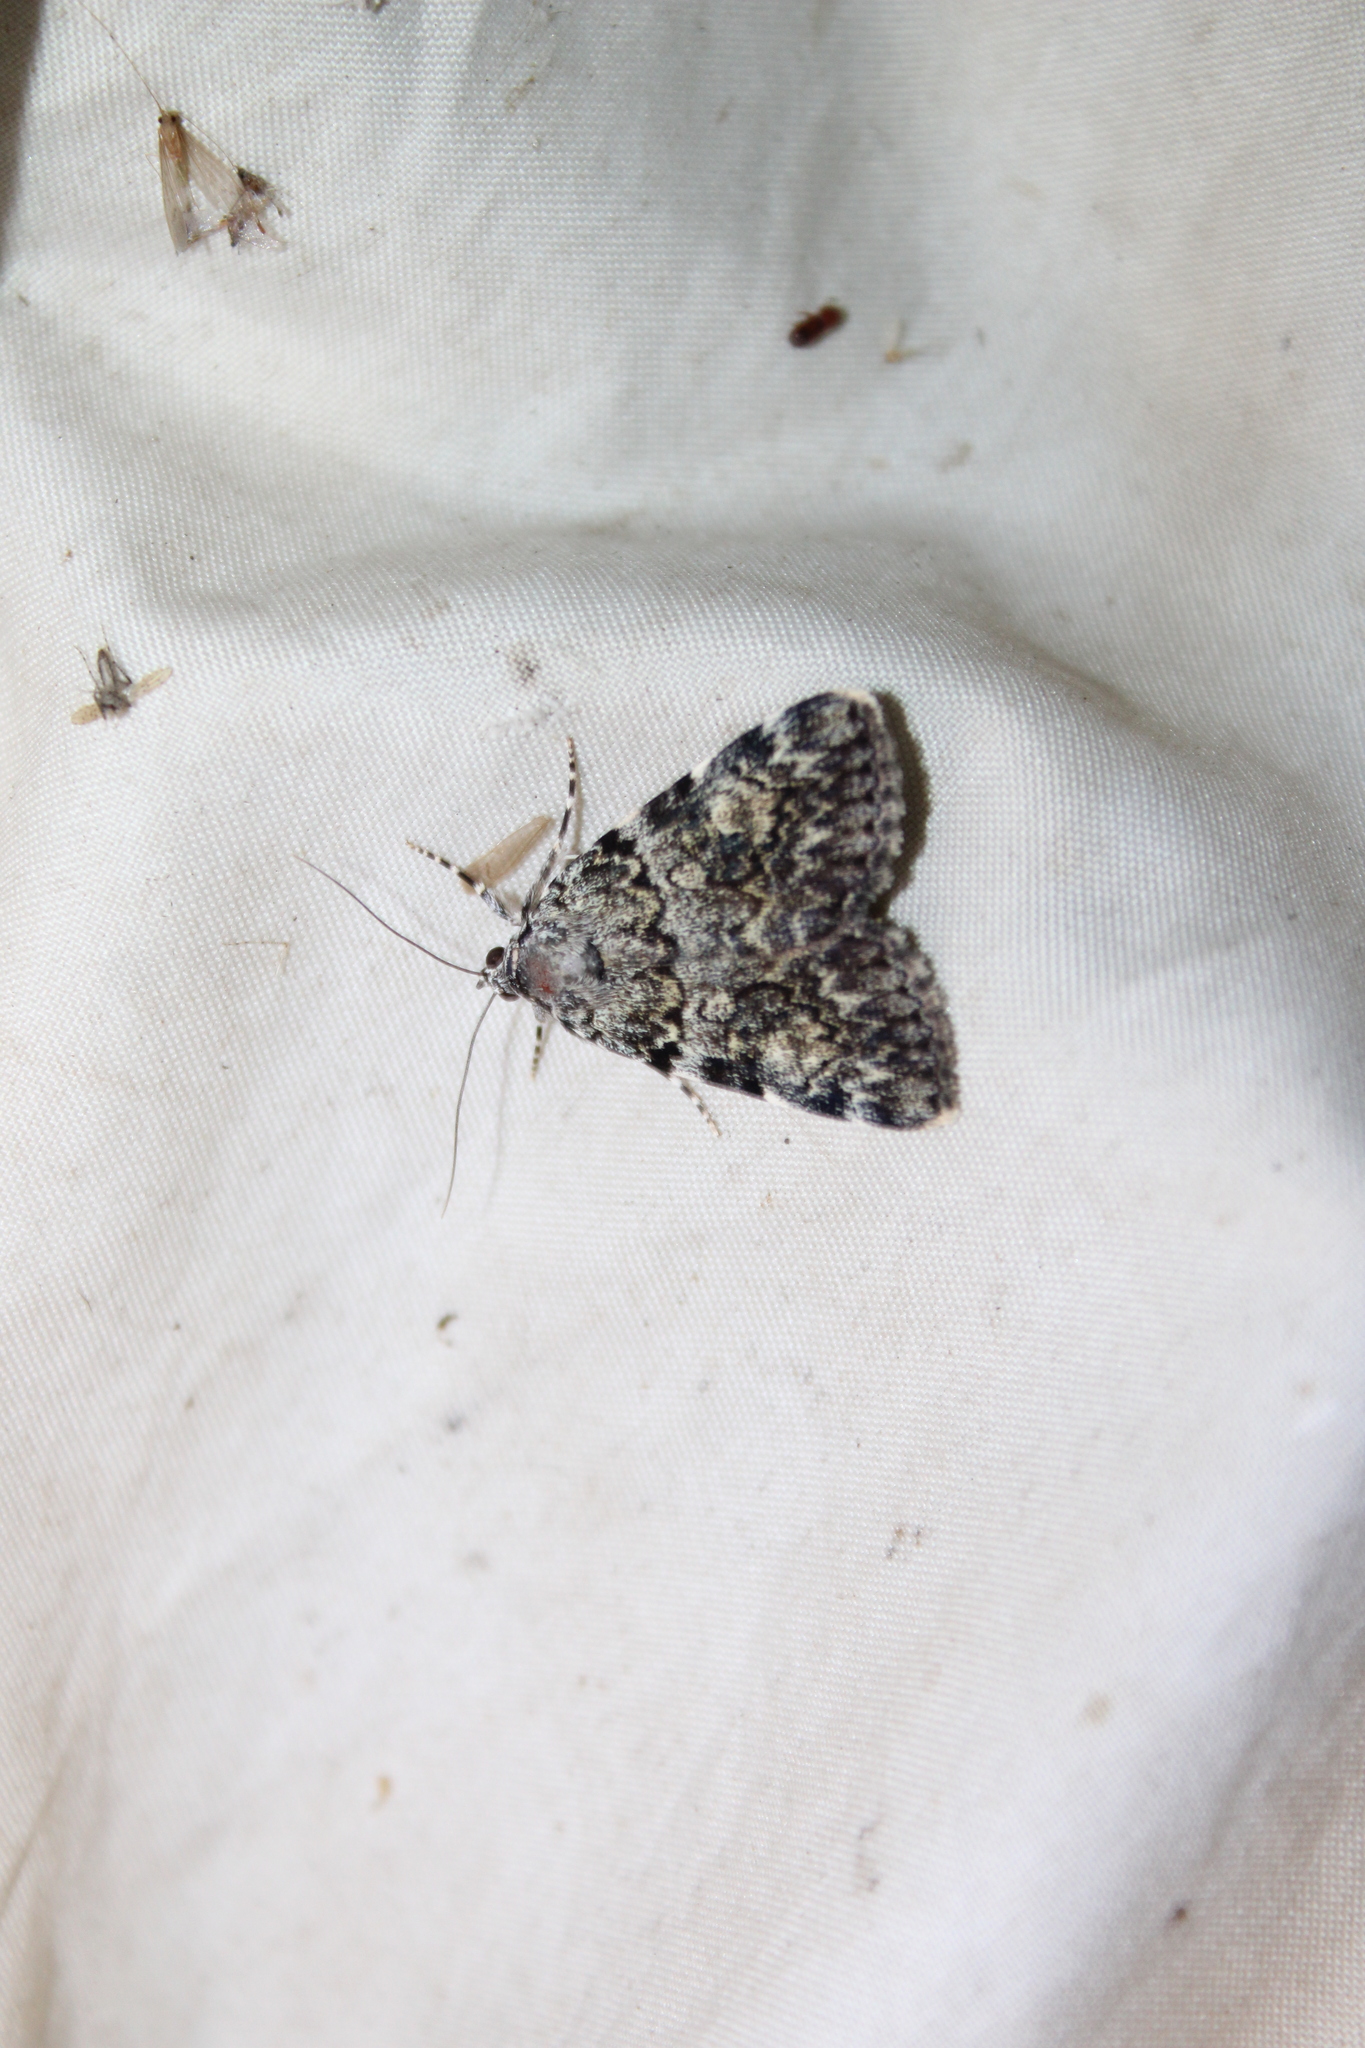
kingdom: Animalia
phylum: Arthropoda
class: Insecta
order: Lepidoptera
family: Erebidae
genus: Catocala
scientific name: Catocala lineella
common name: Little lined underwing
